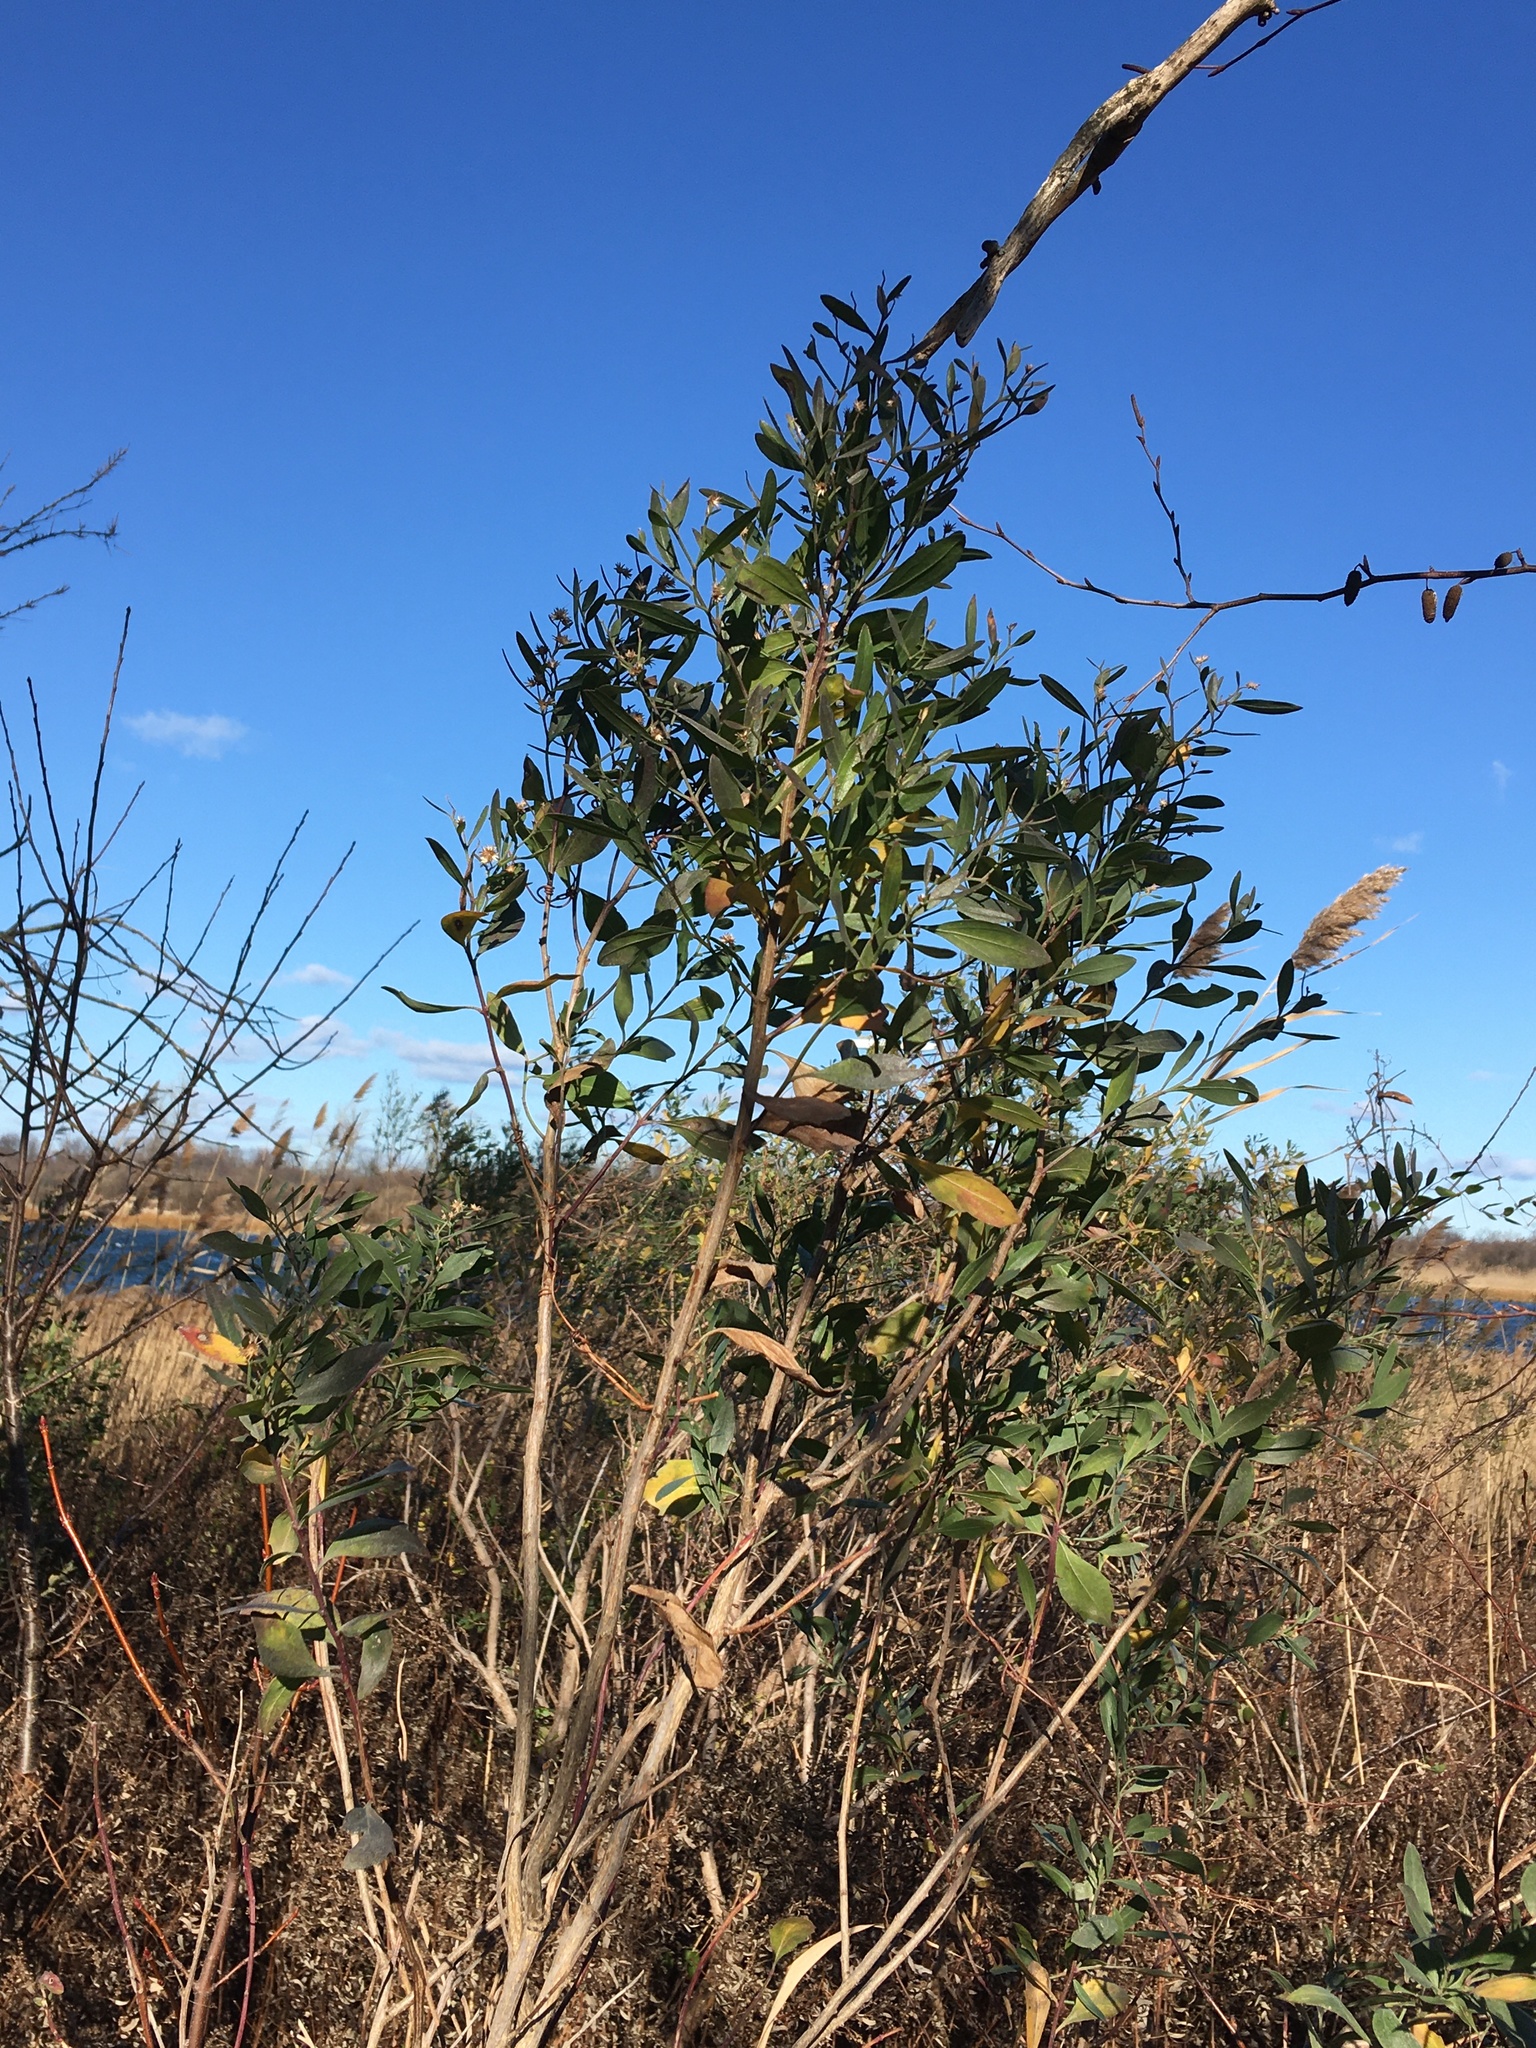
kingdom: Plantae
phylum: Tracheophyta
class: Magnoliopsida
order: Asterales
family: Asteraceae
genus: Baccharis
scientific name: Baccharis halimifolia
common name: Eastern baccharis
